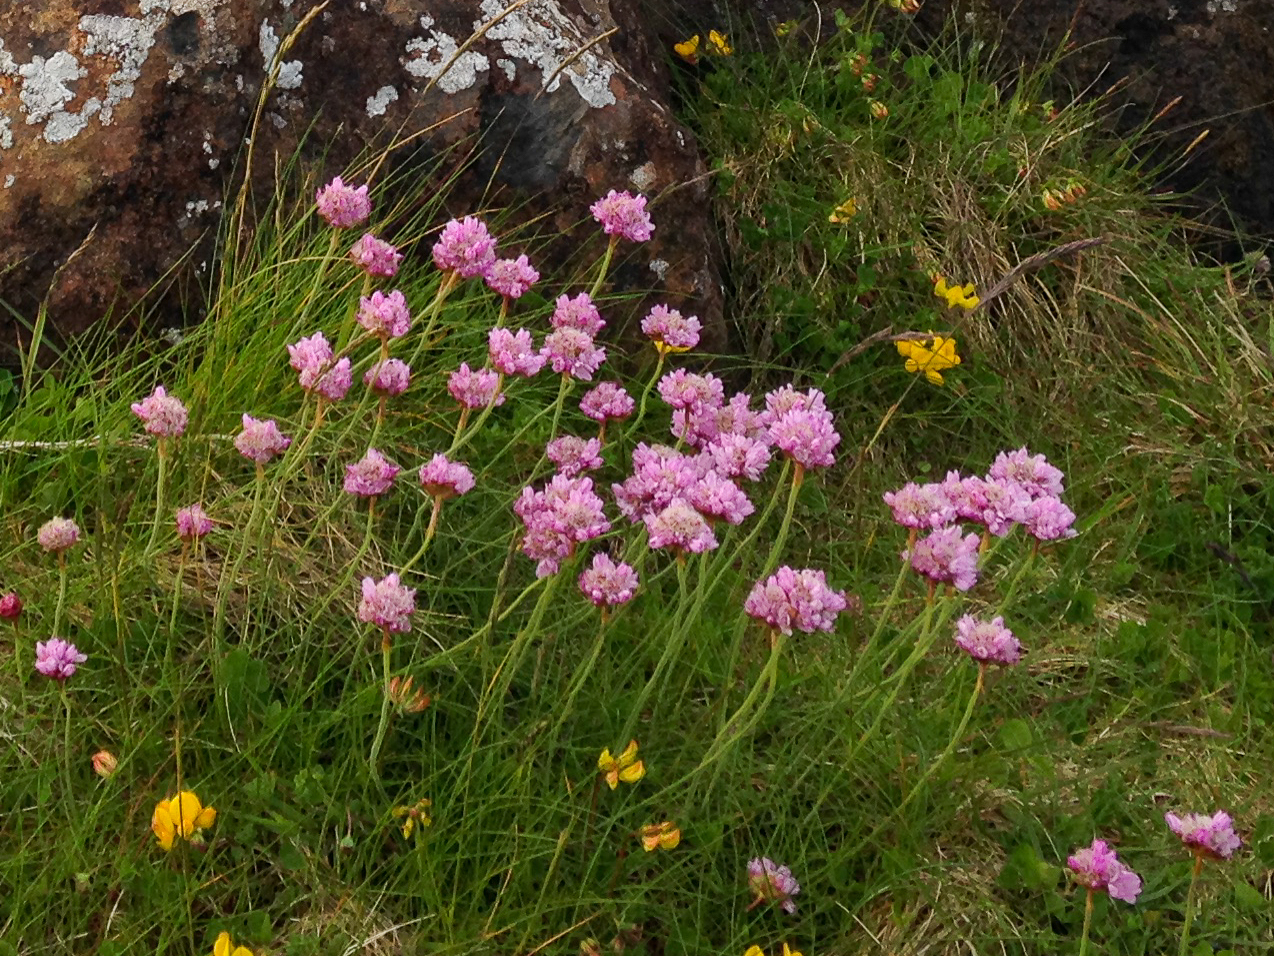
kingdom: Plantae
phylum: Tracheophyta
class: Magnoliopsida
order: Caryophyllales
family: Plumbaginaceae
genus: Armeria
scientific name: Armeria maritima
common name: Thrift
